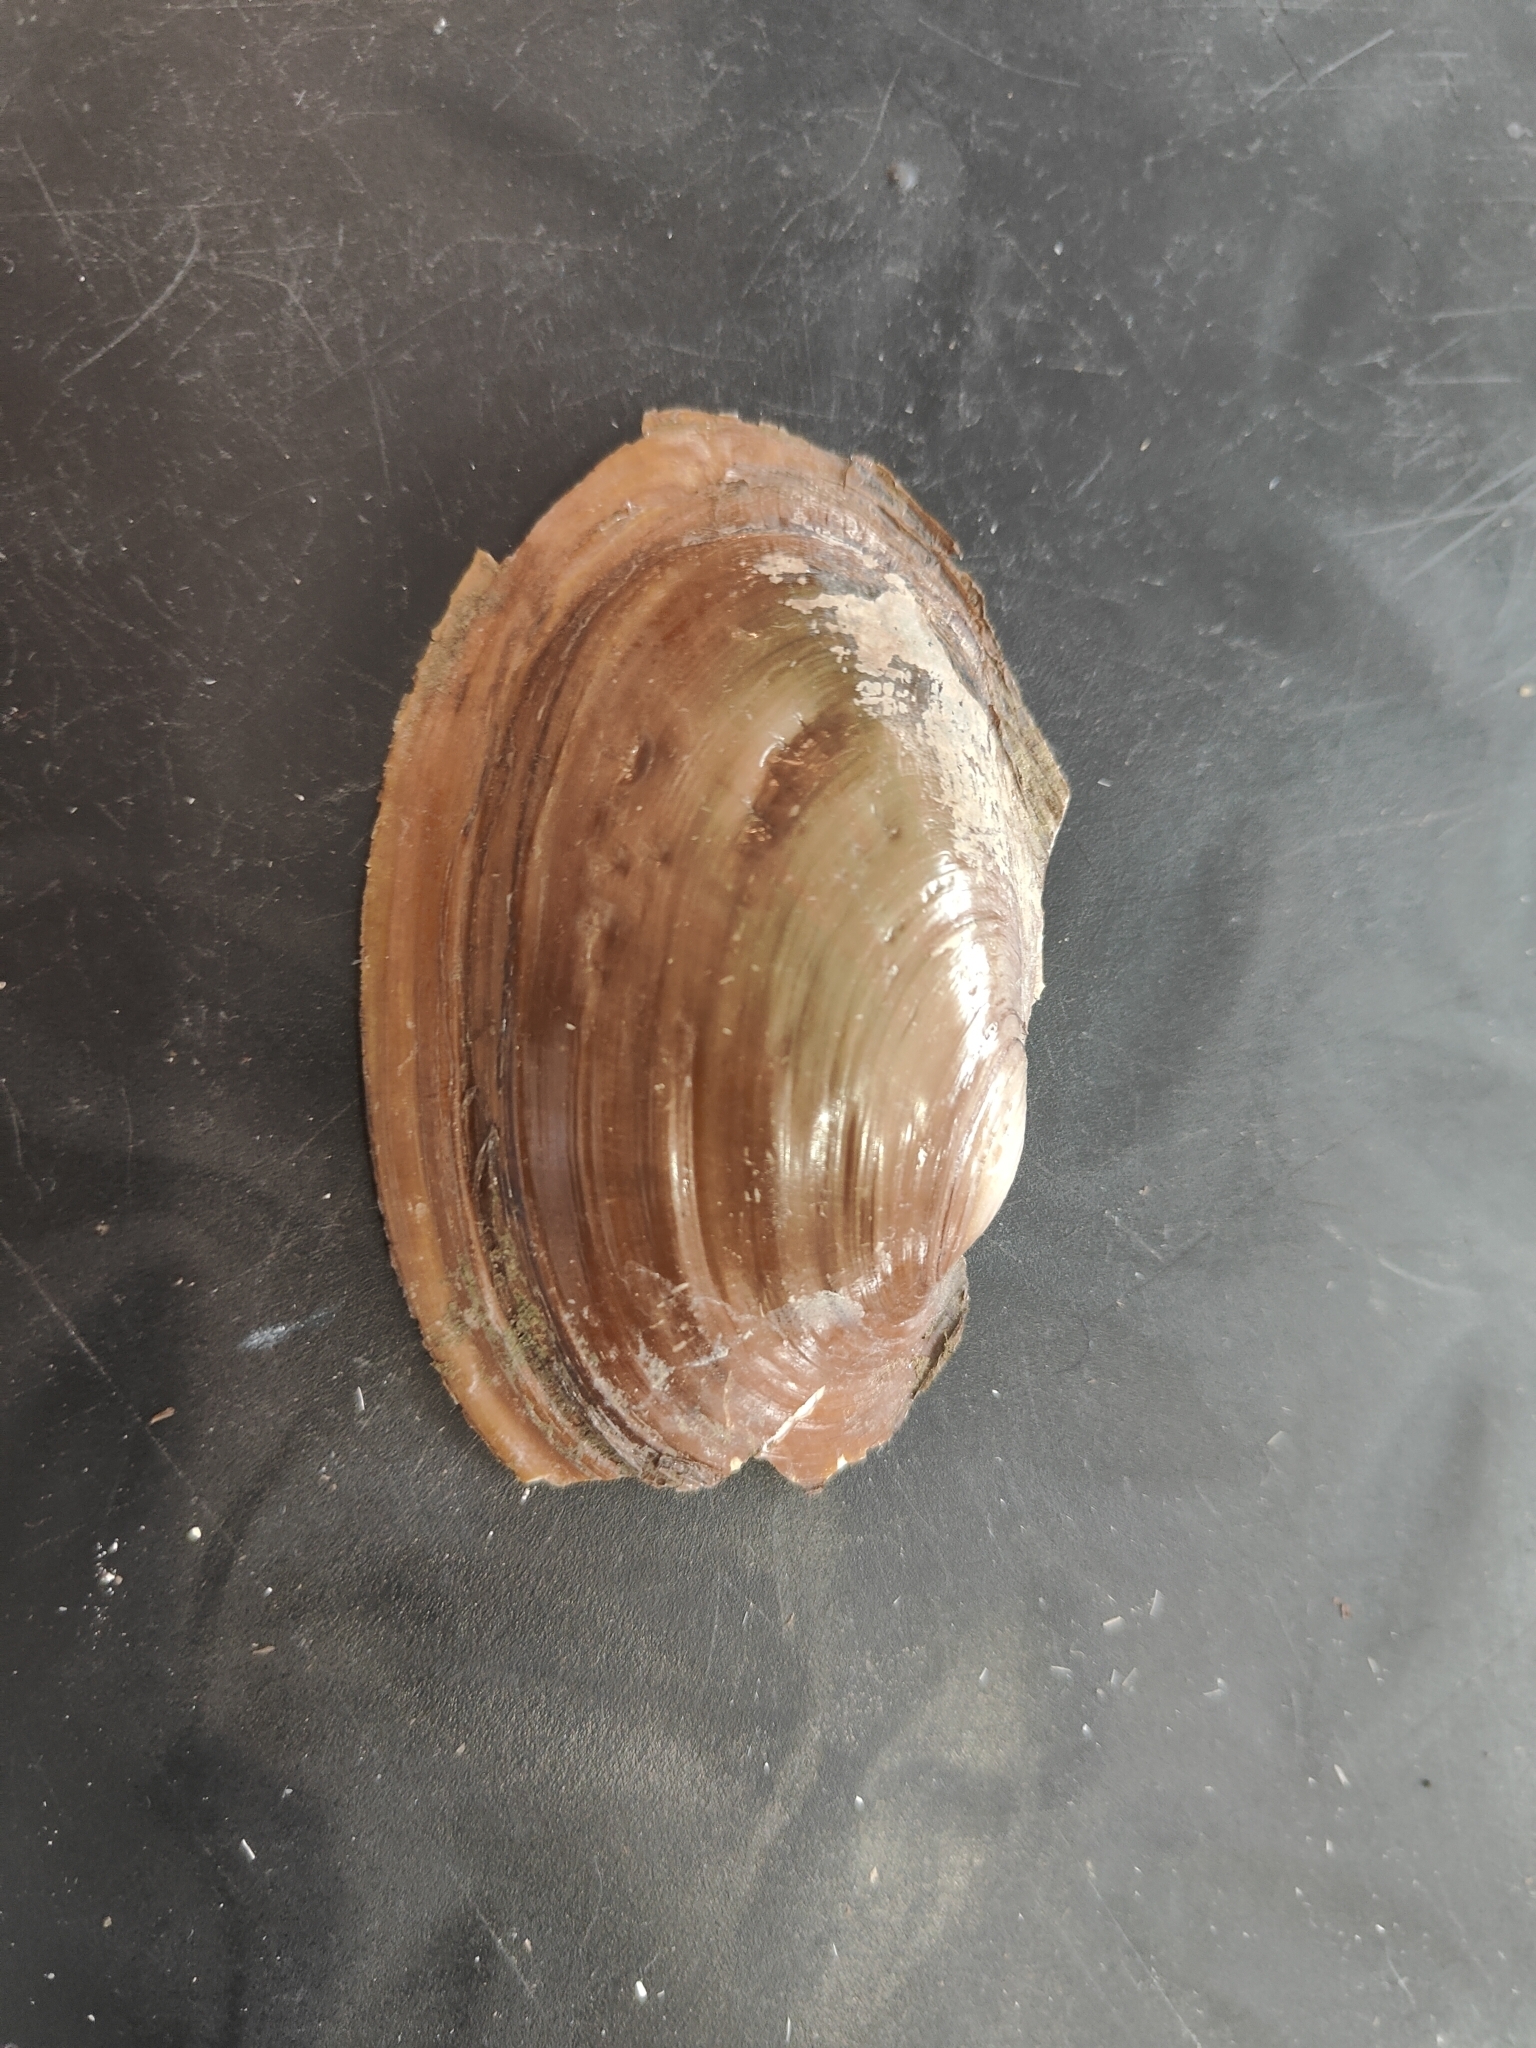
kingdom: Animalia
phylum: Mollusca
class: Bivalvia
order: Unionida
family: Unionidae
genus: Potamilus
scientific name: Potamilus ohiensis
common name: Pink papershell
